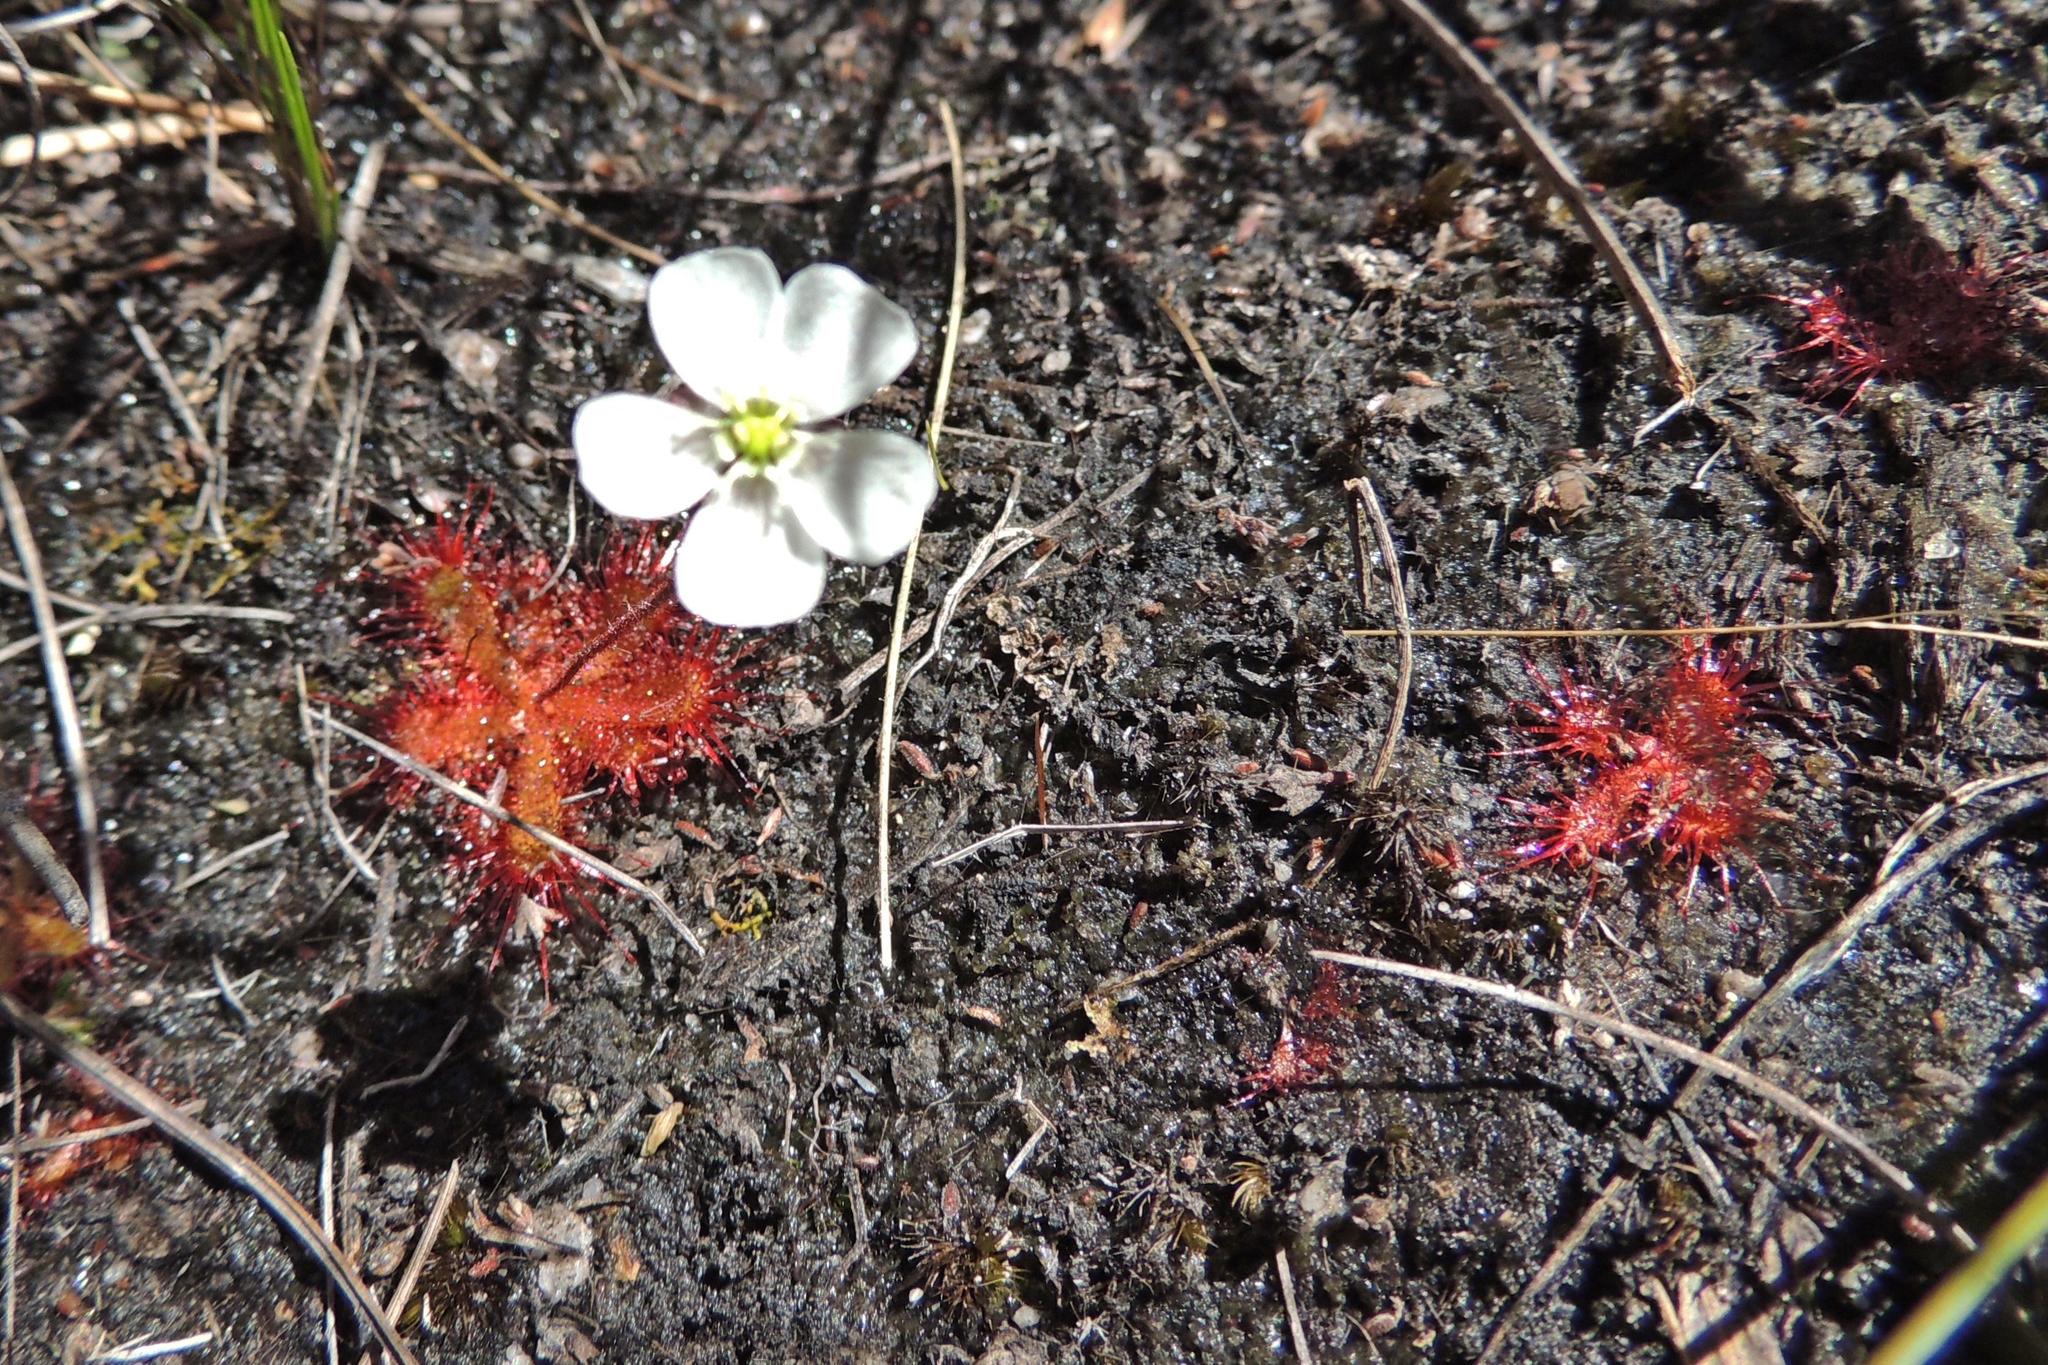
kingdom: Plantae
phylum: Tracheophyta
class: Magnoliopsida
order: Caryophyllales
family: Droseraceae
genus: Drosera
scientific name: Drosera trinervia
